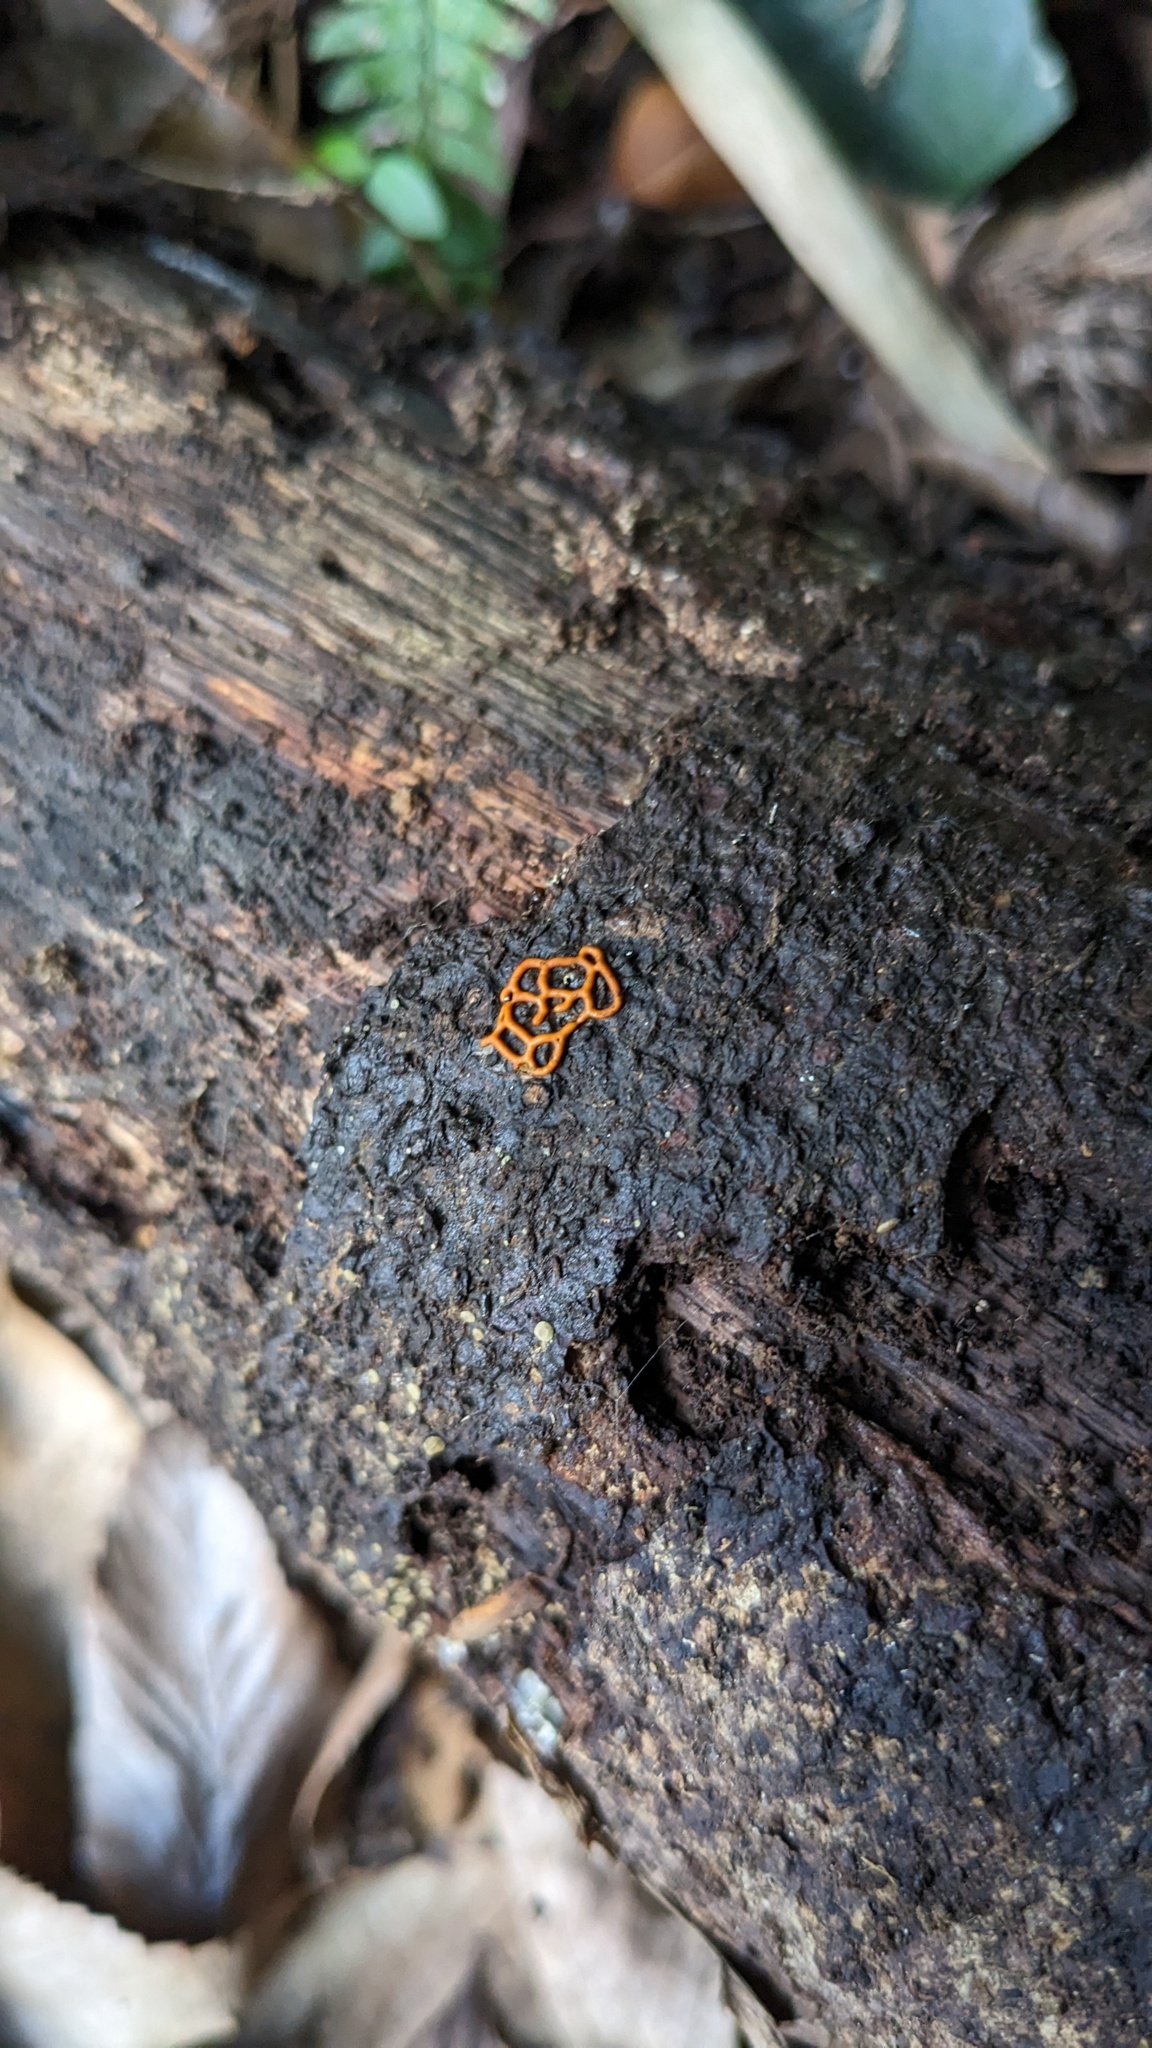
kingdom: Protozoa
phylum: Mycetozoa
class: Myxomycetes
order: Trichiales
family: Arcyriaceae
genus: Hemitrichia
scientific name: Hemitrichia serpula
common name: Pretzel slime mold
